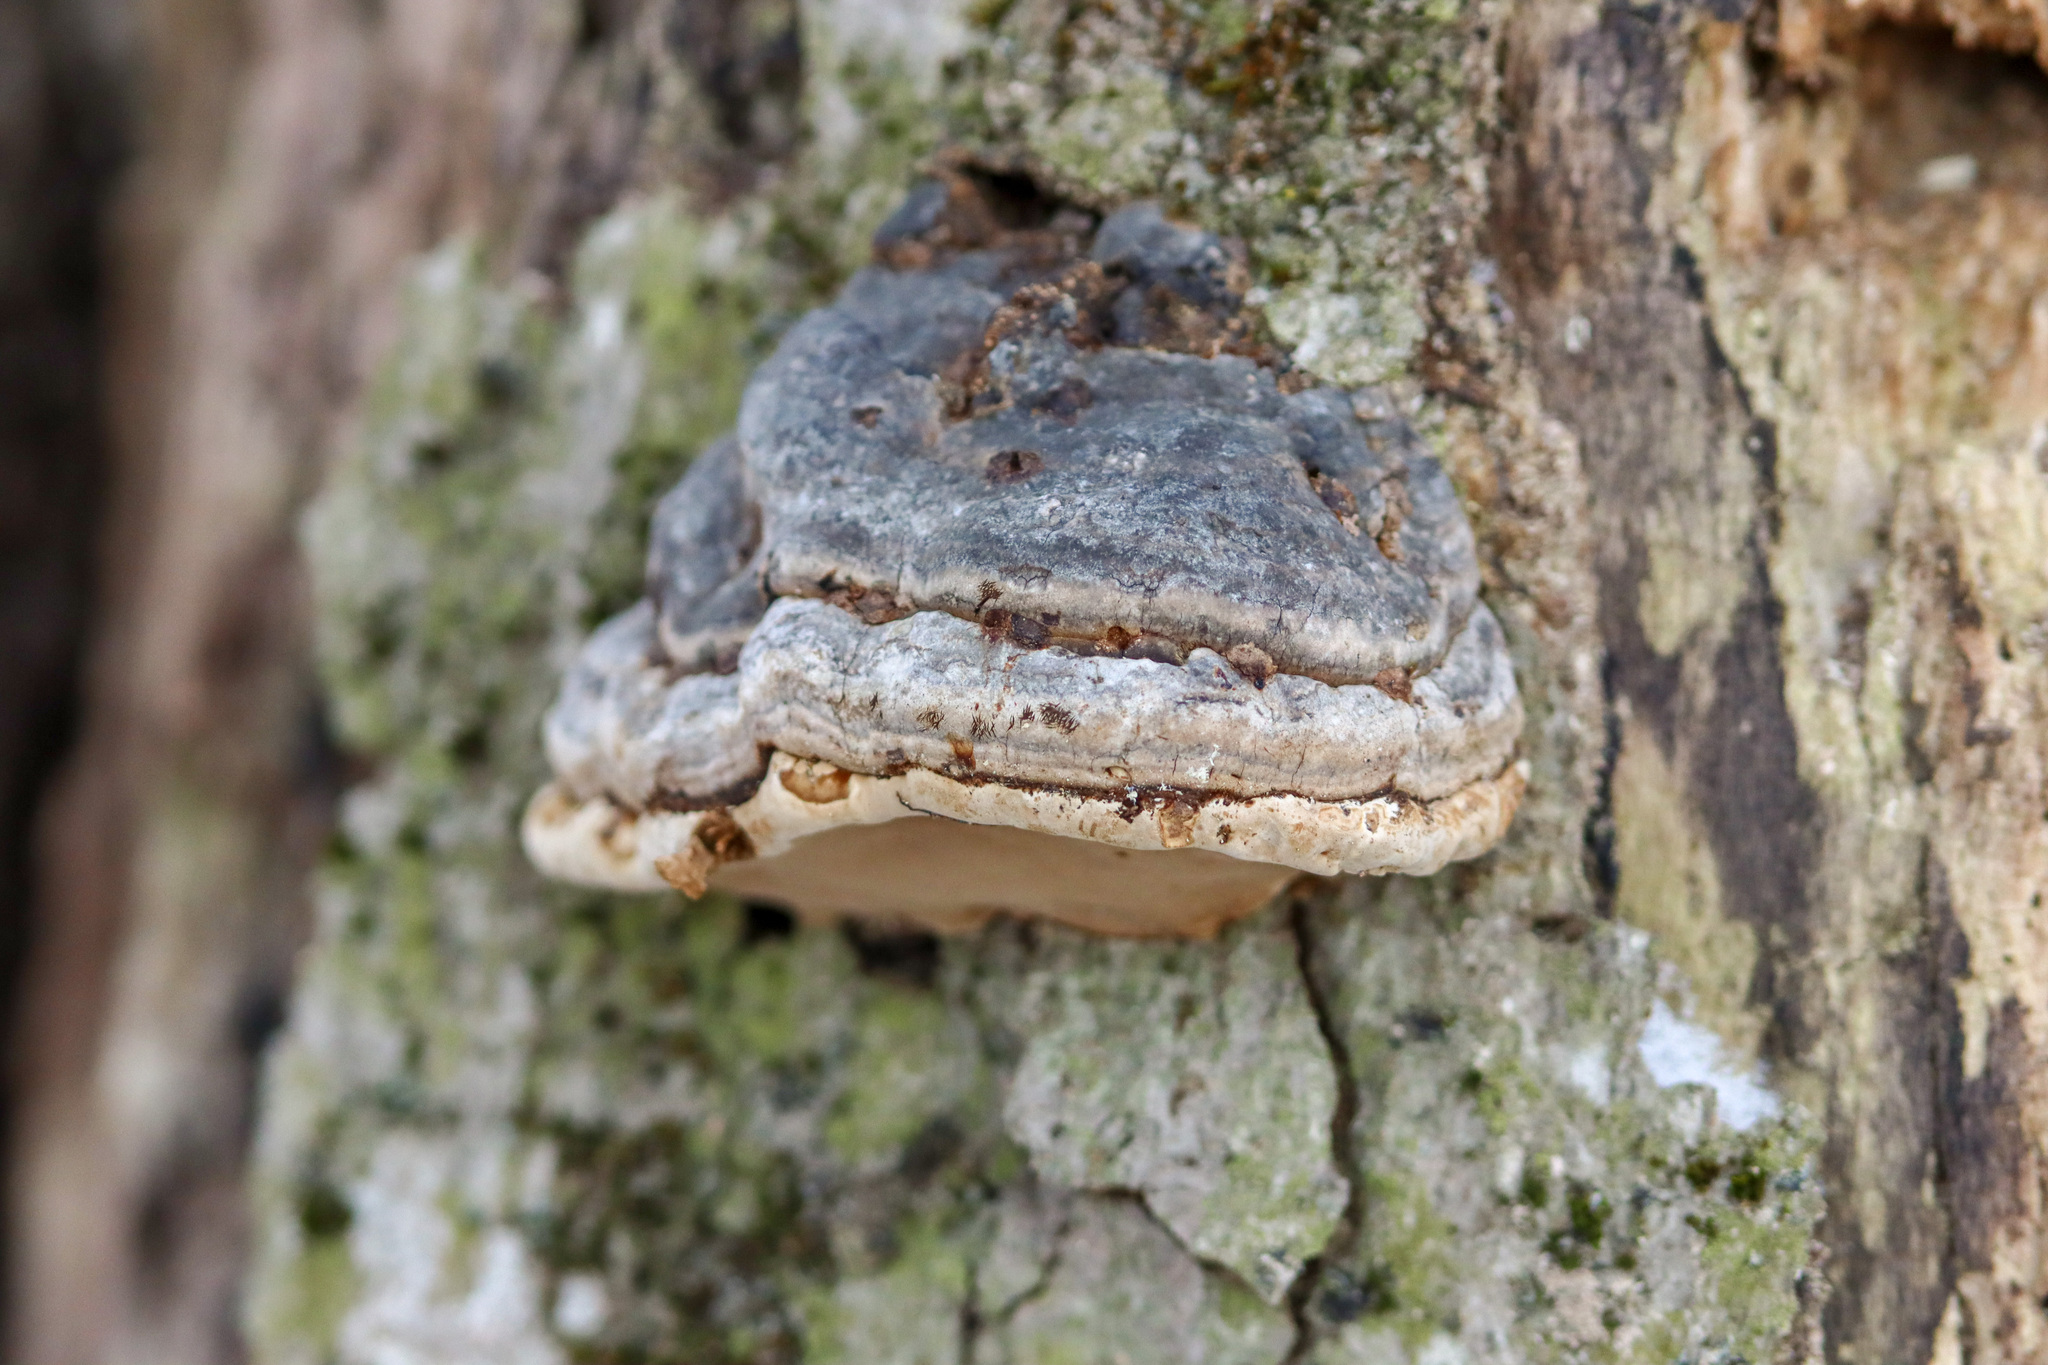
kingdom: Fungi
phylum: Basidiomycota
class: Agaricomycetes
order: Polyporales
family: Polyporaceae
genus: Fomes
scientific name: Fomes fomentarius
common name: Hoof fungus
